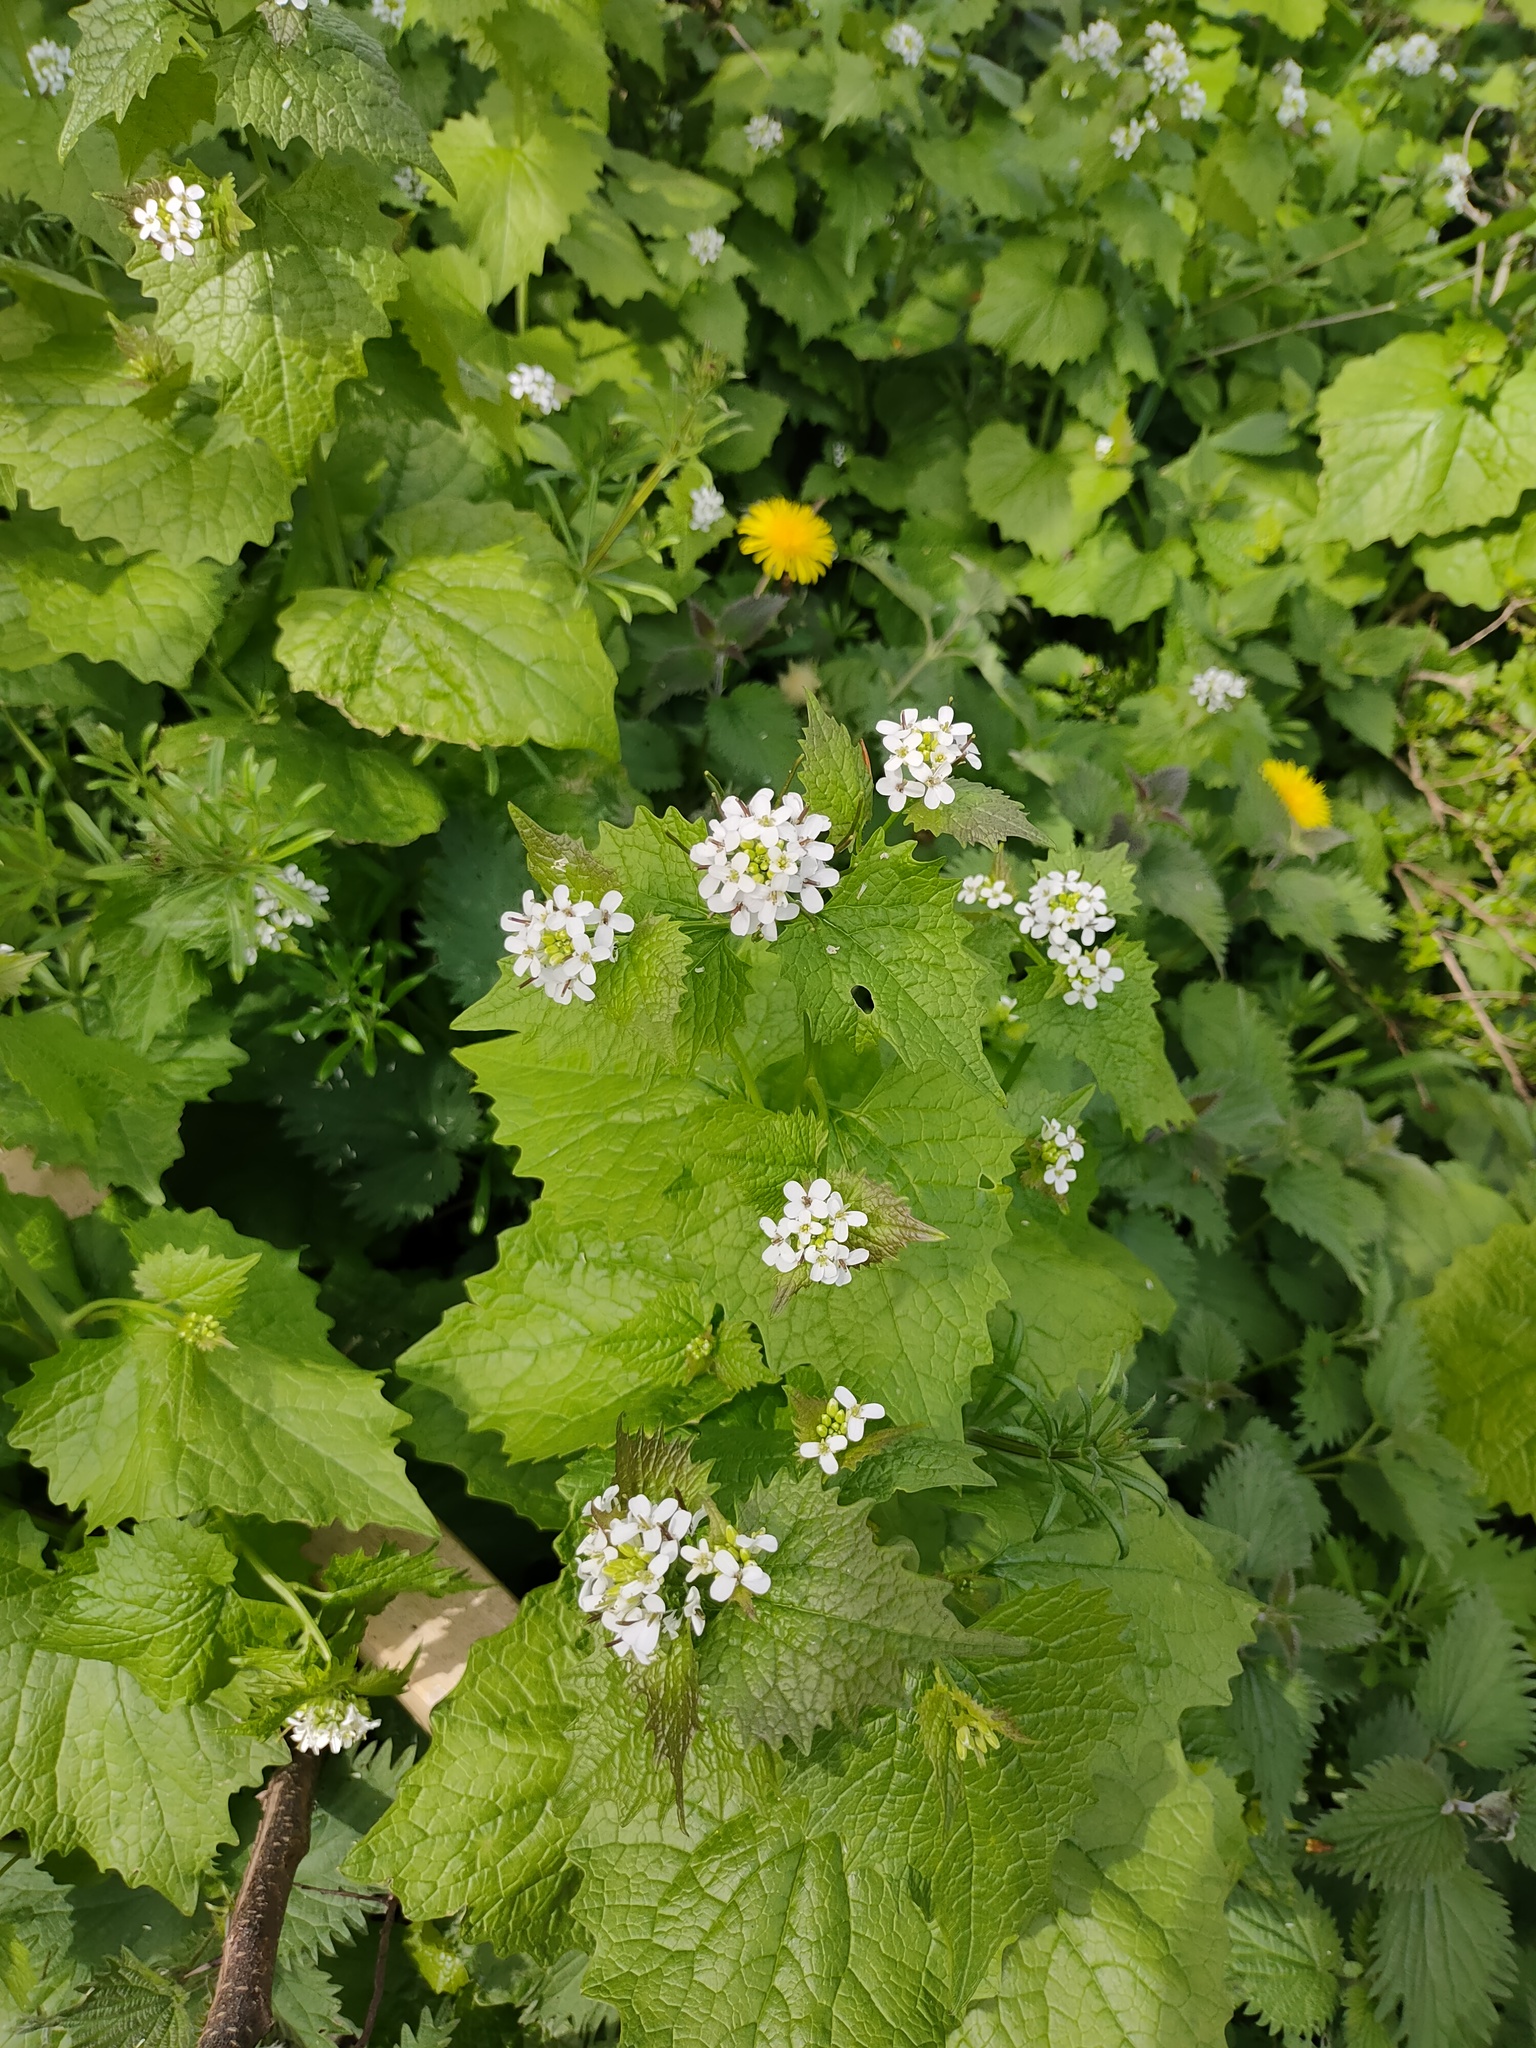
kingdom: Plantae
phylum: Tracheophyta
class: Magnoliopsida
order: Brassicales
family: Brassicaceae
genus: Alliaria
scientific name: Alliaria petiolata
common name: Garlic mustard
